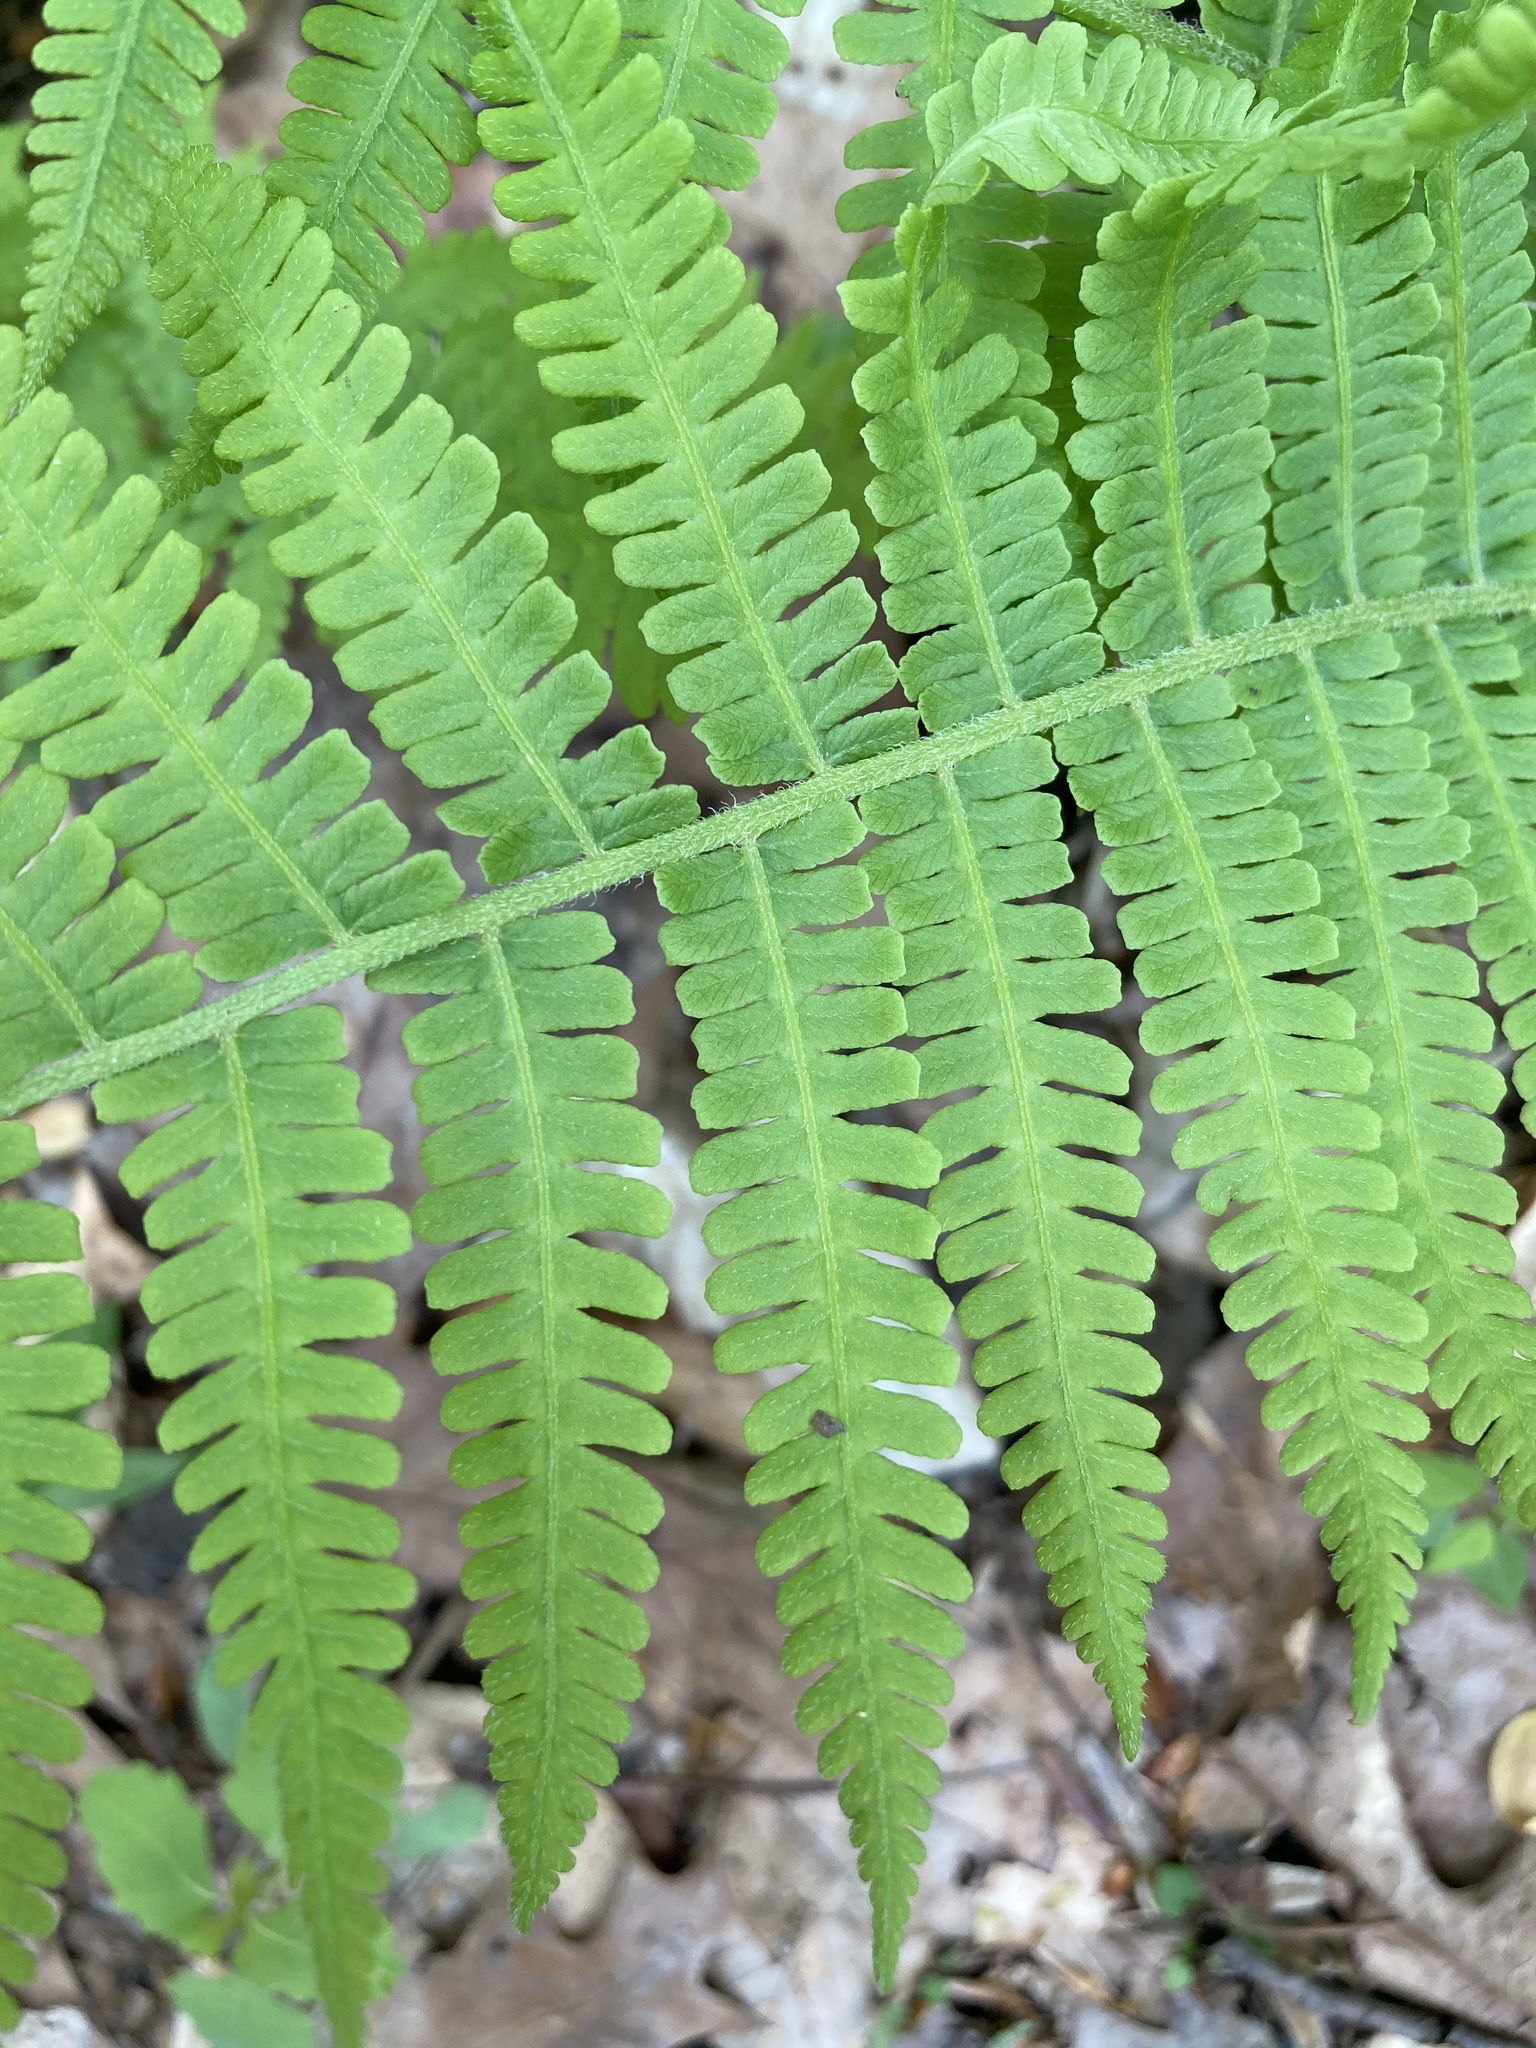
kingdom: Plantae
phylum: Tracheophyta
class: Polypodiopsida
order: Polypodiales
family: Athyriaceae
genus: Deparia
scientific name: Deparia acrostichoides
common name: Silver false spleenwort
